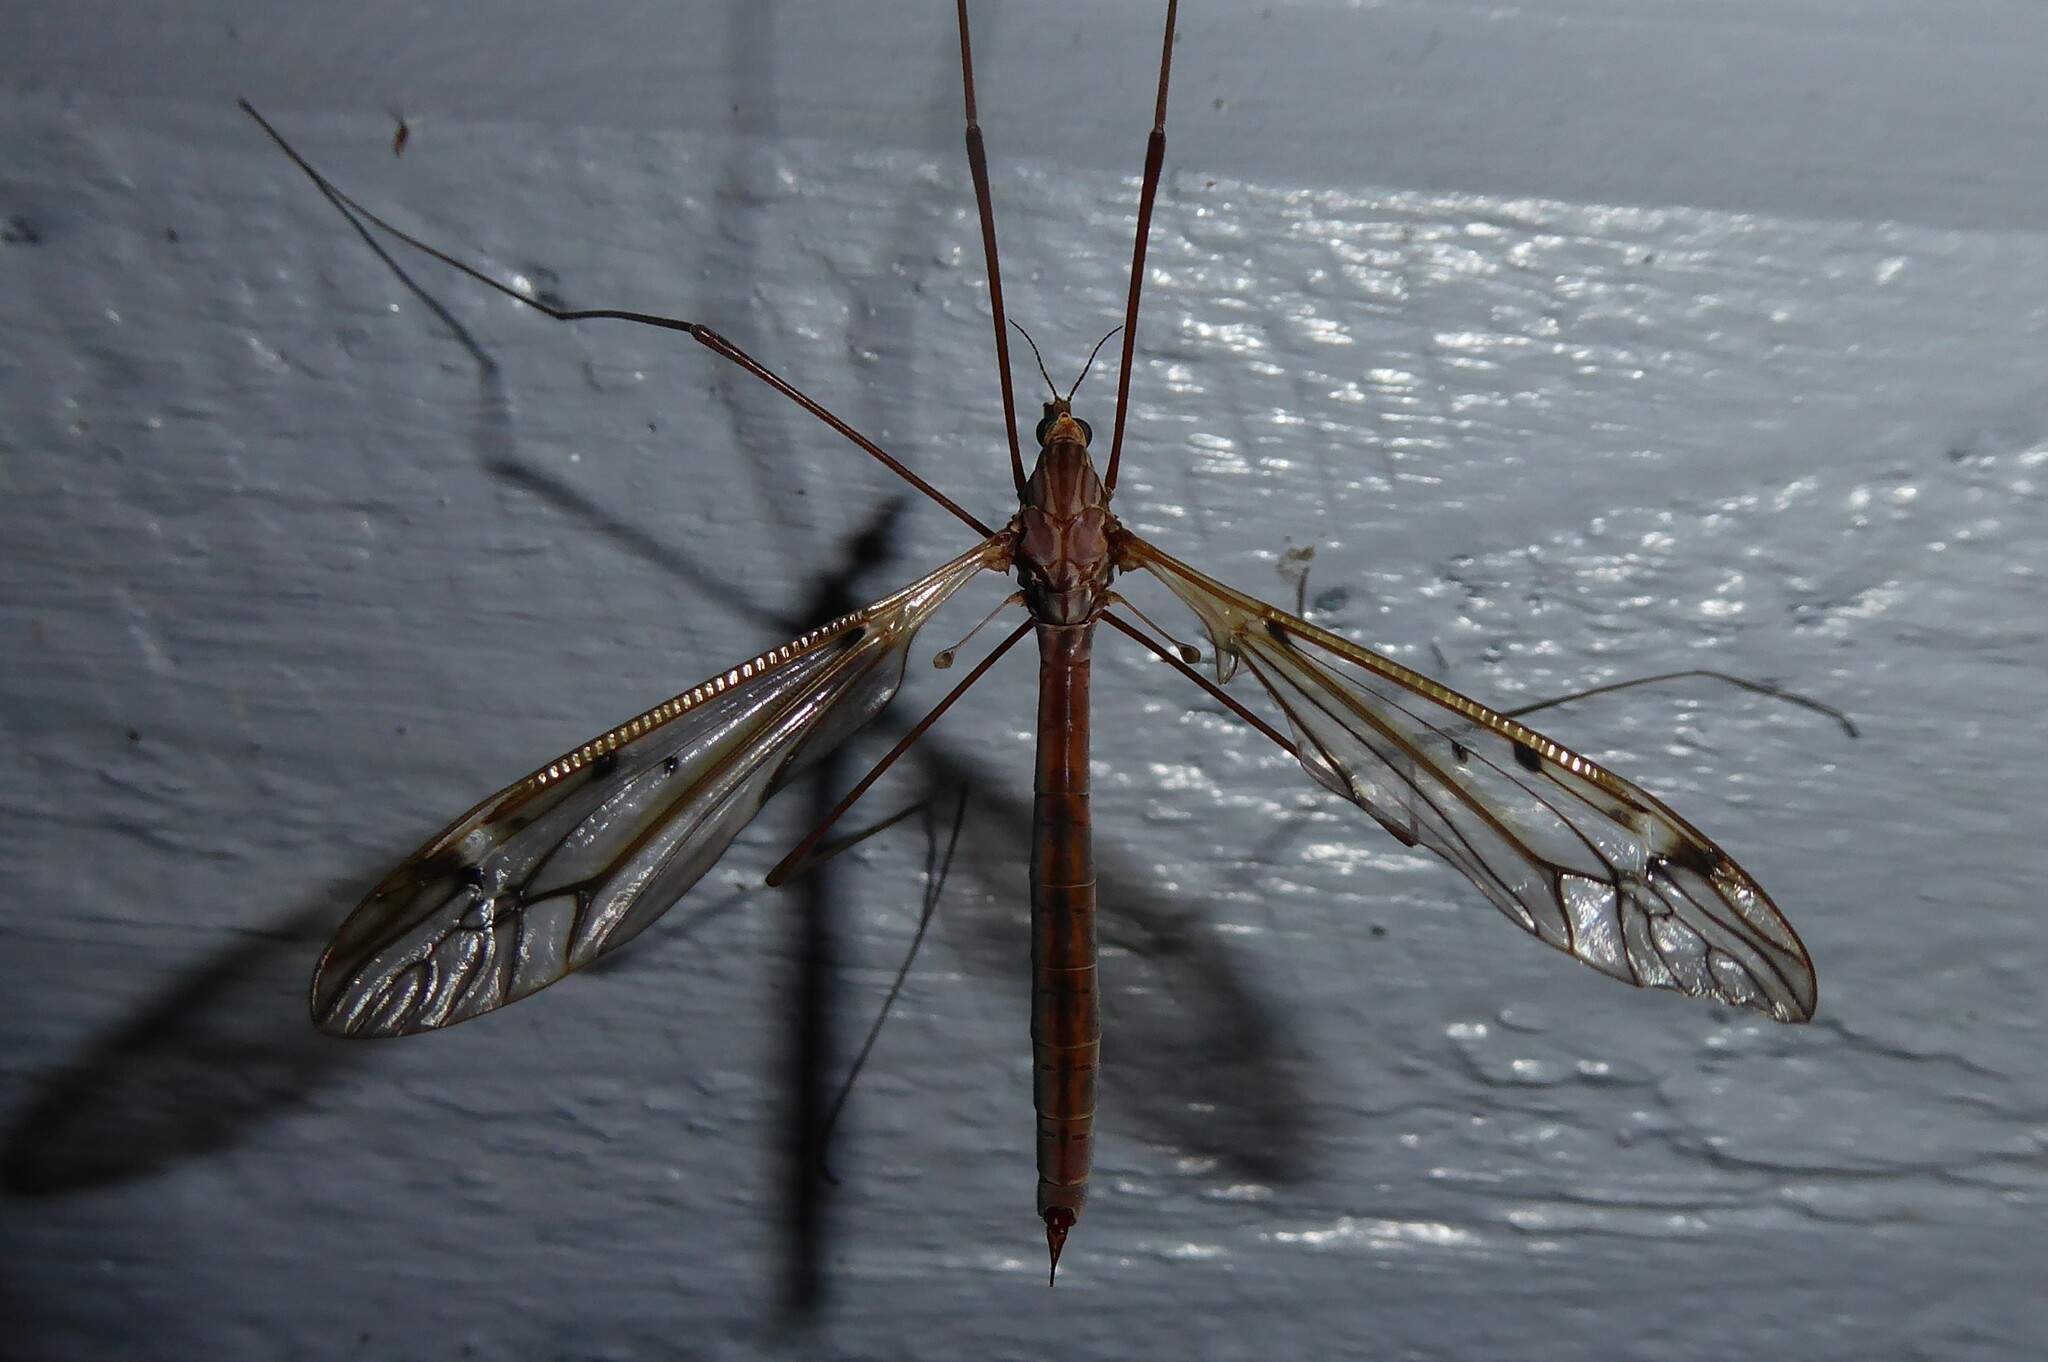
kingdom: Animalia
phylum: Arthropoda
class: Insecta
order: Diptera
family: Tipulidae
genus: Zelandotipula
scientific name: Zelandotipula novarae
